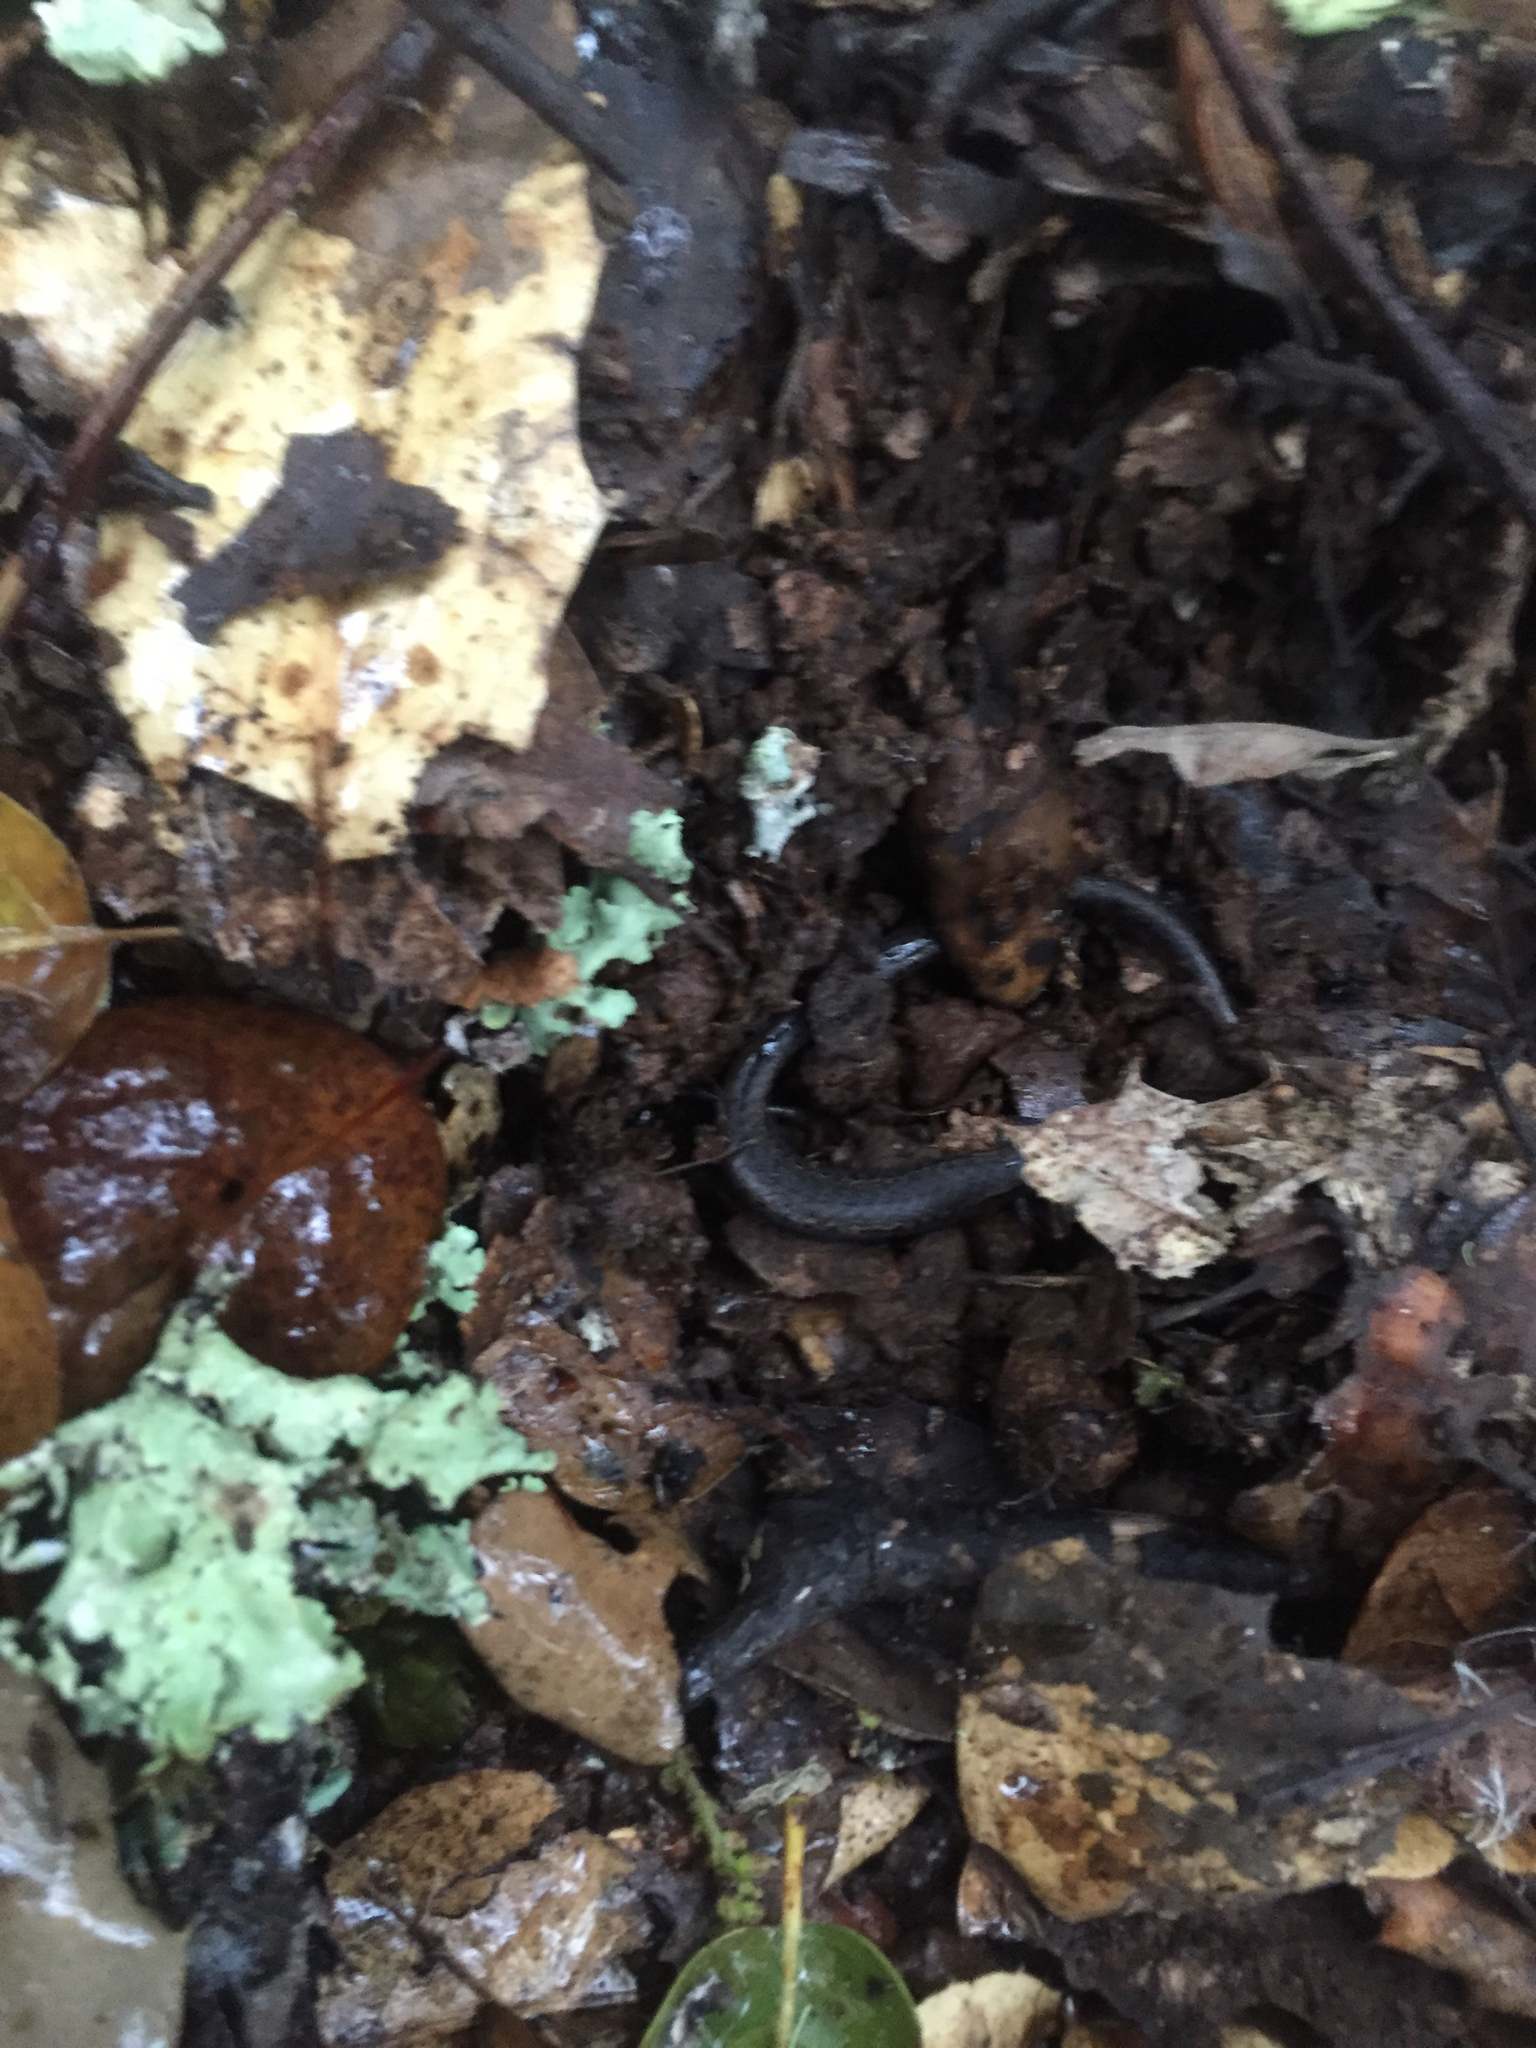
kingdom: Animalia
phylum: Chordata
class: Amphibia
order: Caudata
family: Plethodontidae
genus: Batrachoseps
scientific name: Batrachoseps attenuatus
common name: California slender salamander
